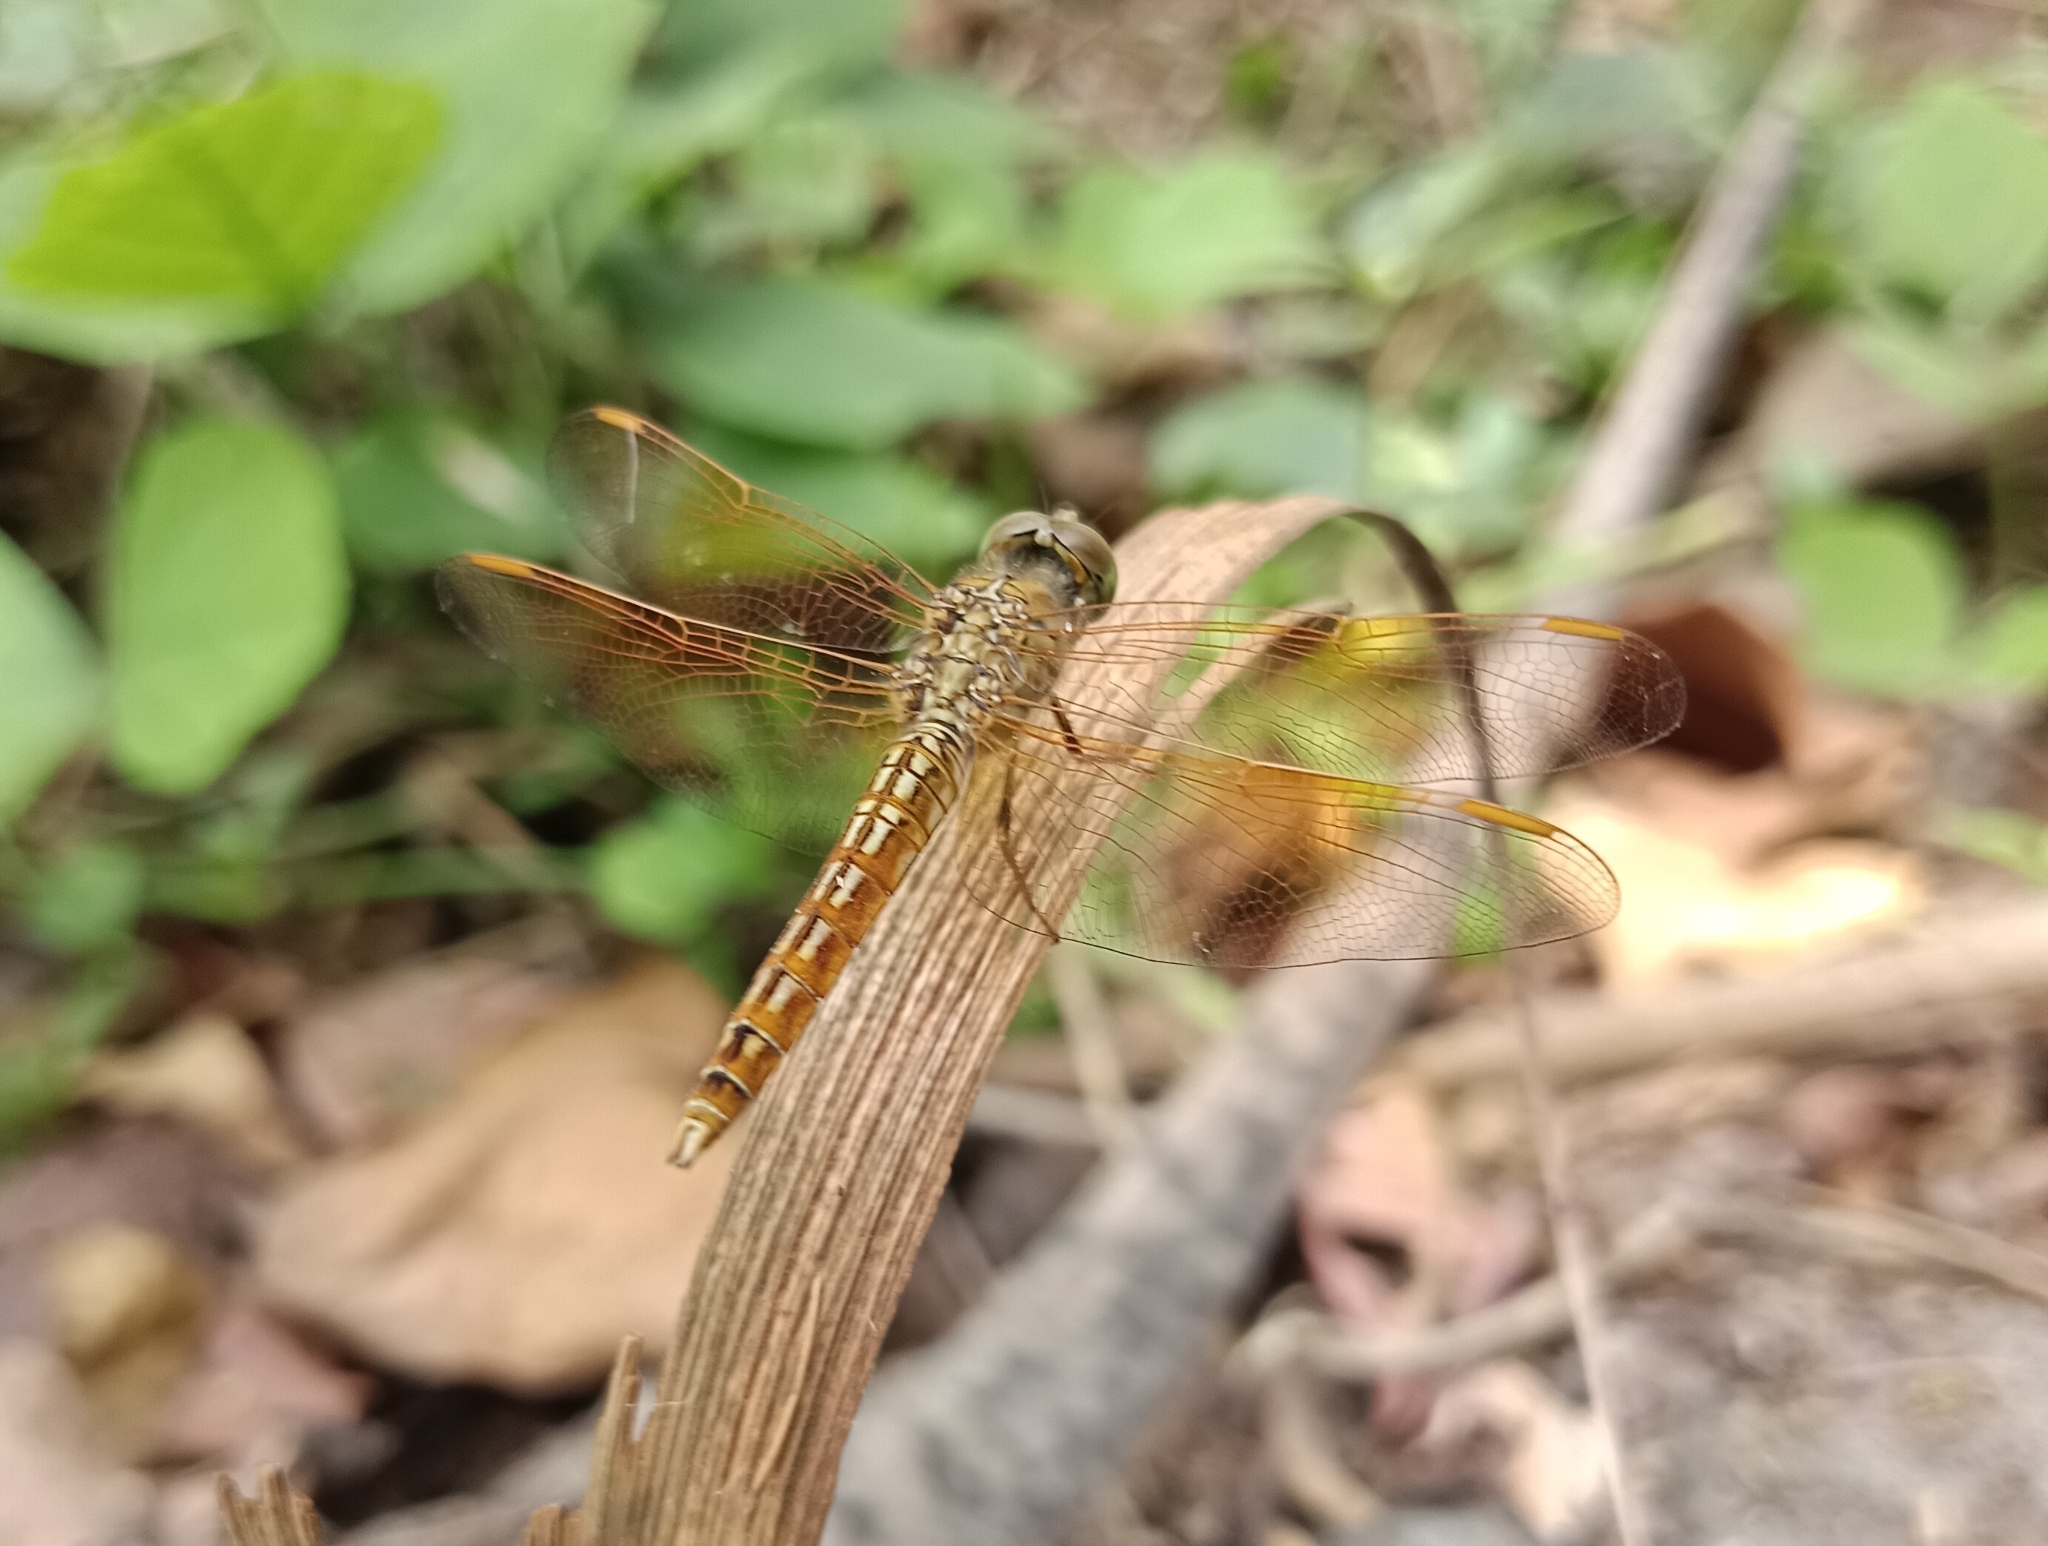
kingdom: Animalia
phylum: Arthropoda
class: Insecta
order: Odonata
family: Libellulidae
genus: Brachythemis
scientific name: Brachythemis contaminata
